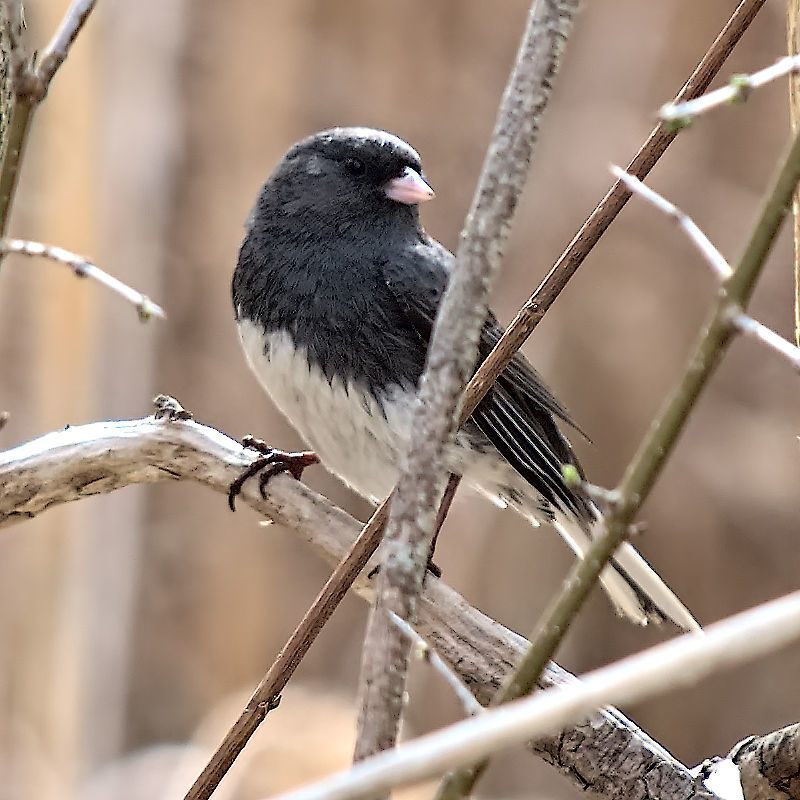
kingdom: Animalia
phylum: Chordata
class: Aves
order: Passeriformes
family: Passerellidae
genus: Junco
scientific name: Junco hyemalis
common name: Dark-eyed junco
